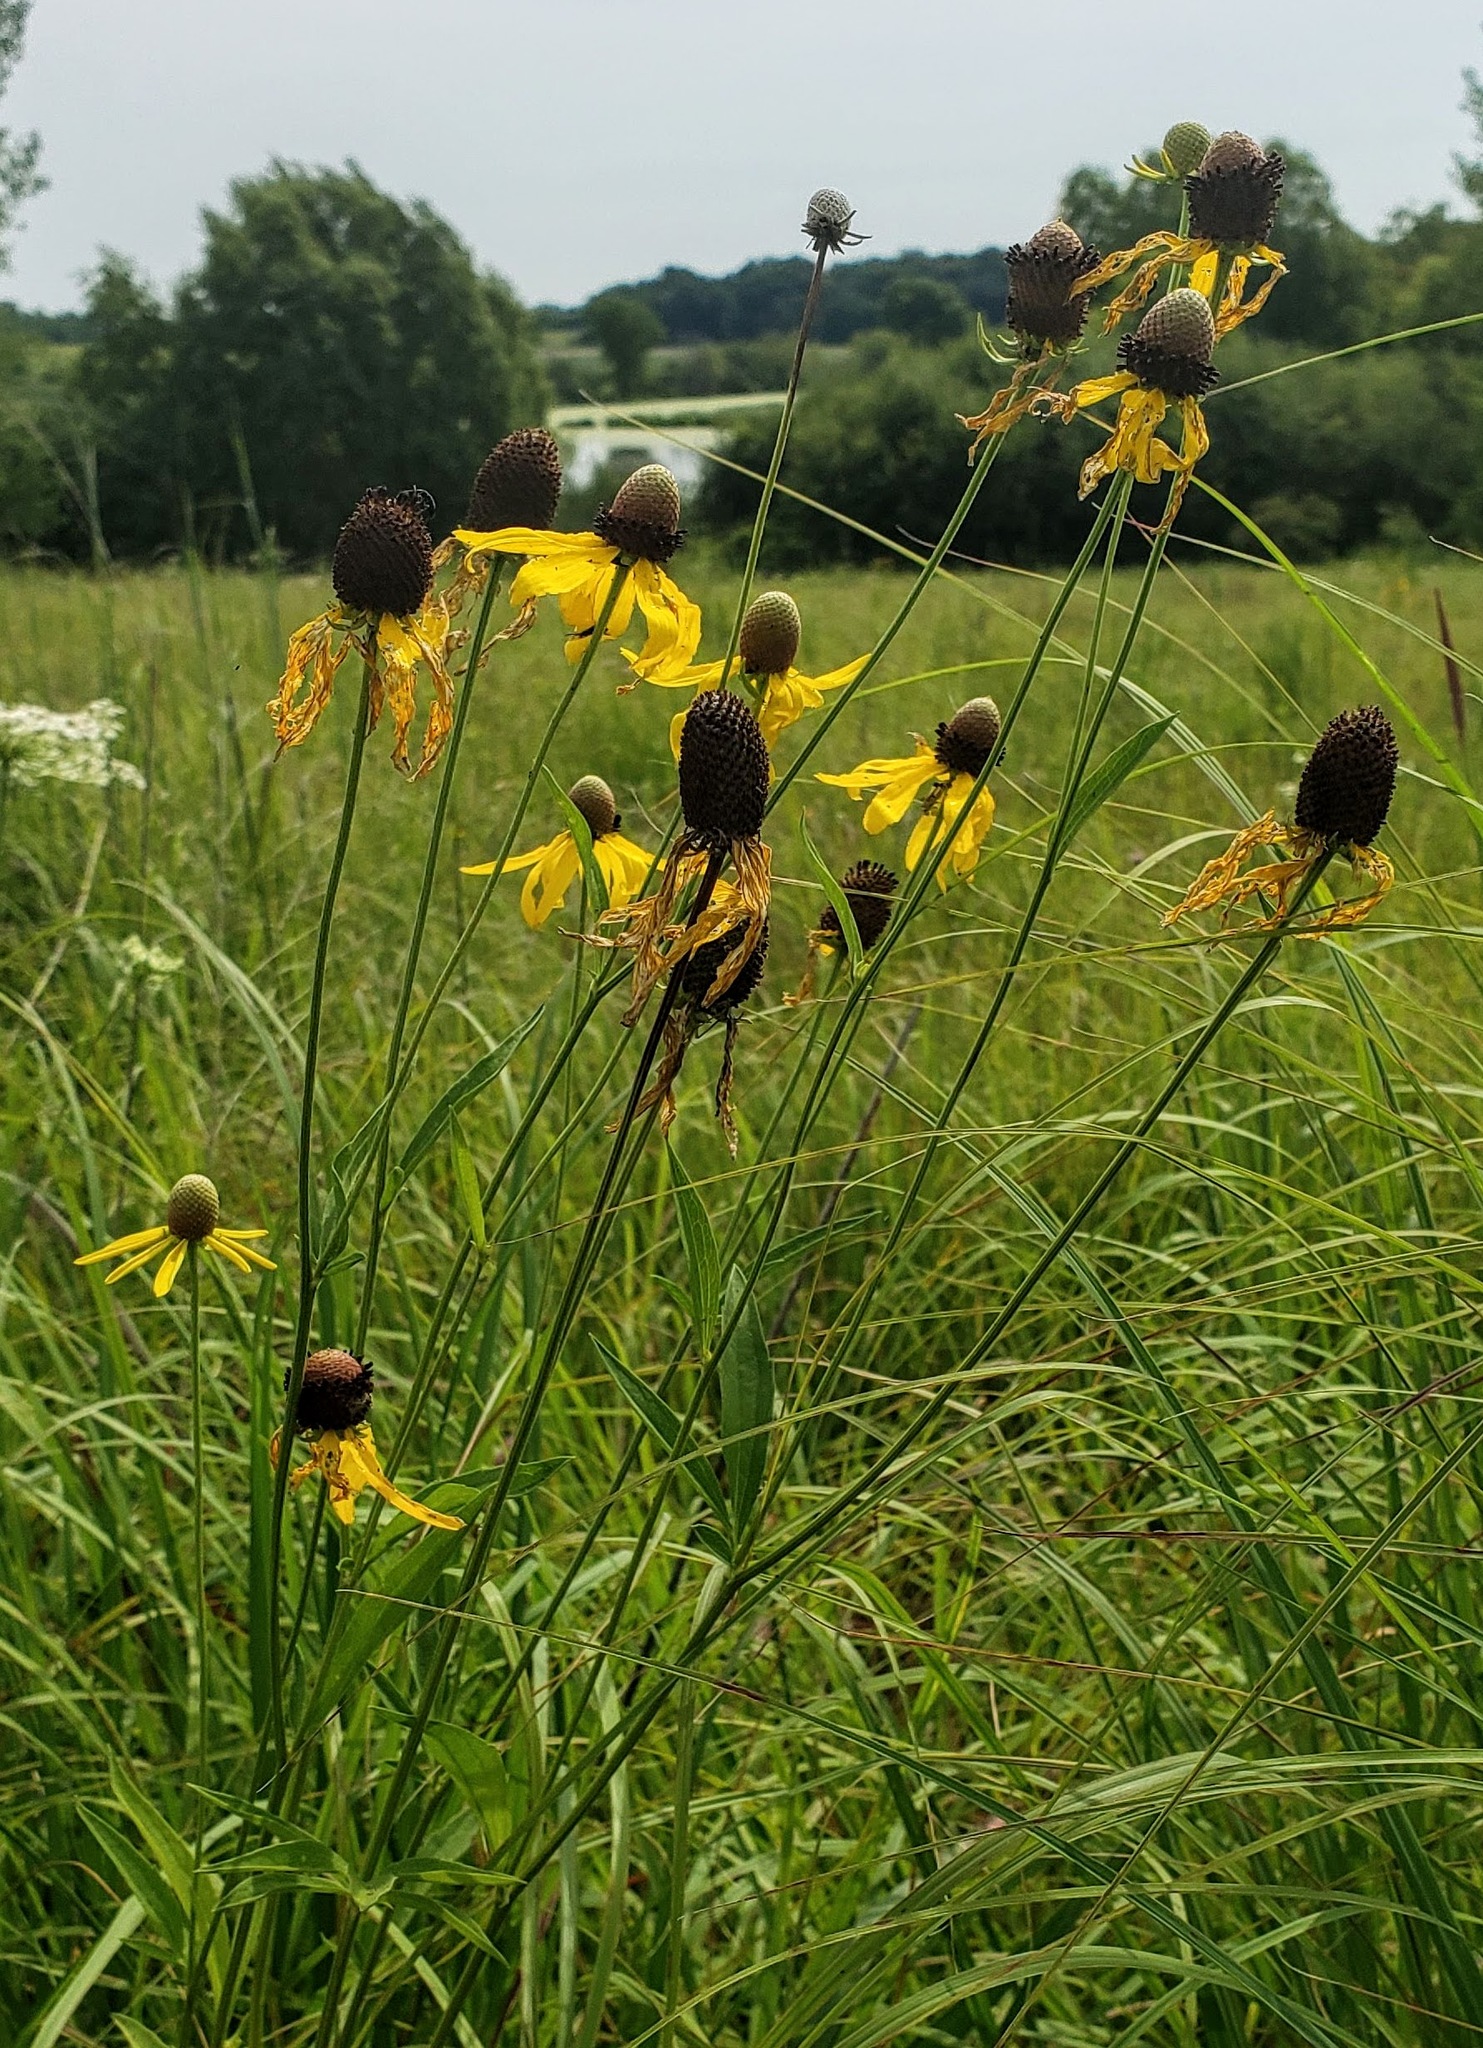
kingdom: Plantae
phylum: Tracheophyta
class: Magnoliopsida
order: Asterales
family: Asteraceae
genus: Ratibida
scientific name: Ratibida pinnata
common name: Drooping prairie-coneflower
